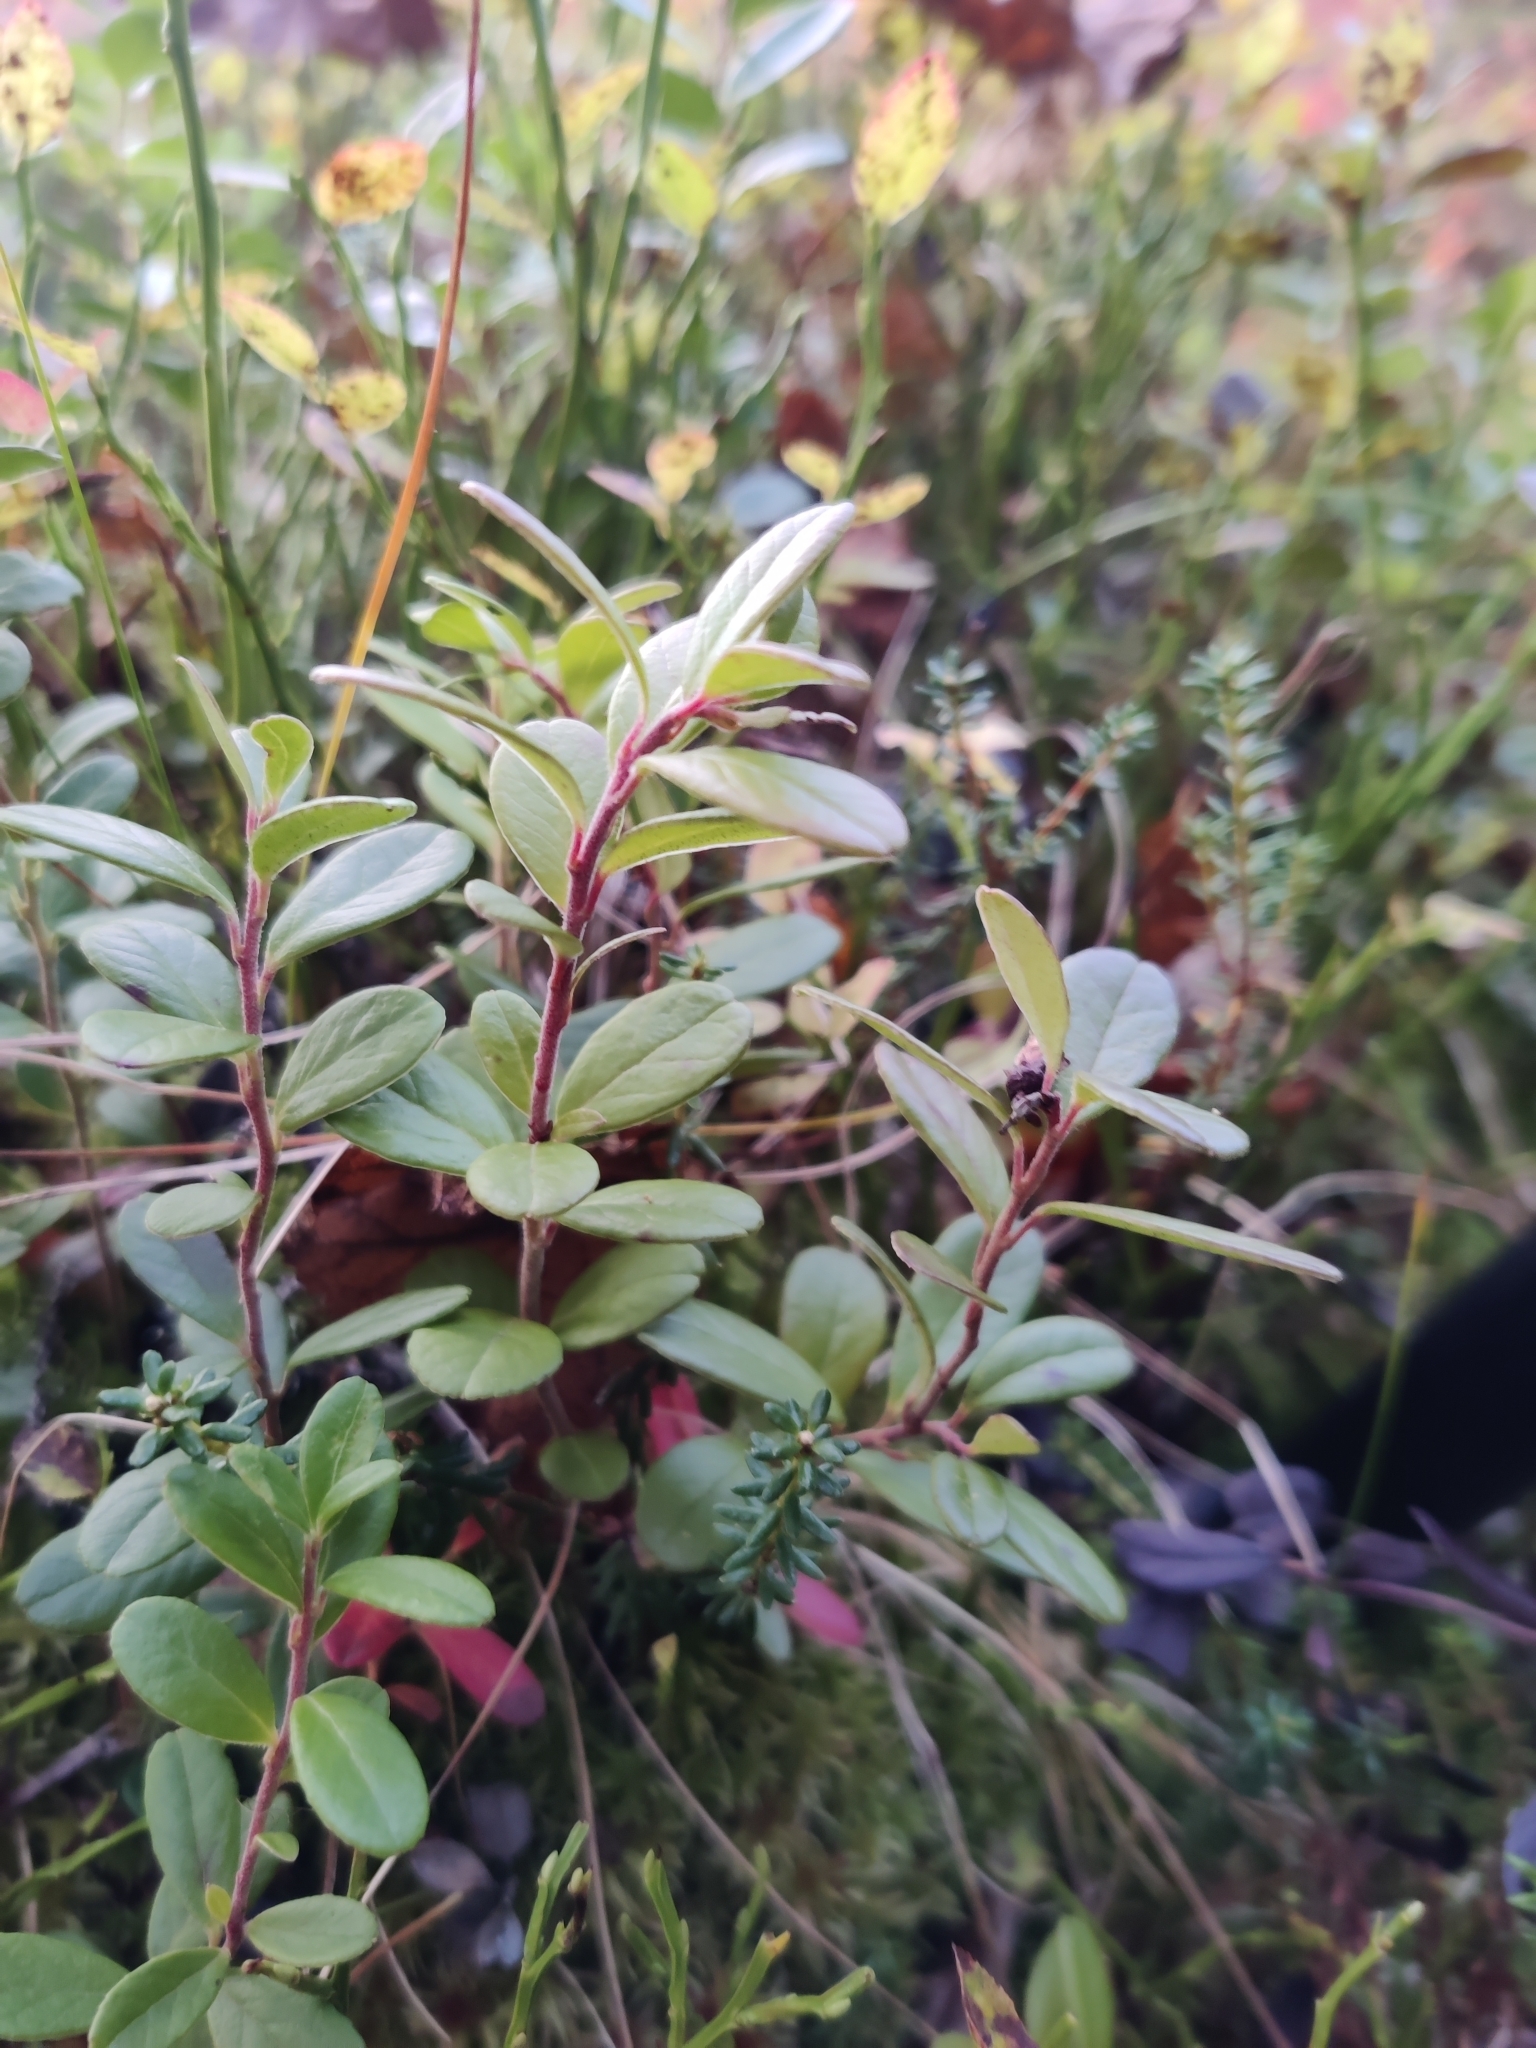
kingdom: Plantae
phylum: Tracheophyta
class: Magnoliopsida
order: Ericales
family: Ericaceae
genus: Vaccinium
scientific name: Vaccinium vitis-idaea
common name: Cowberry
